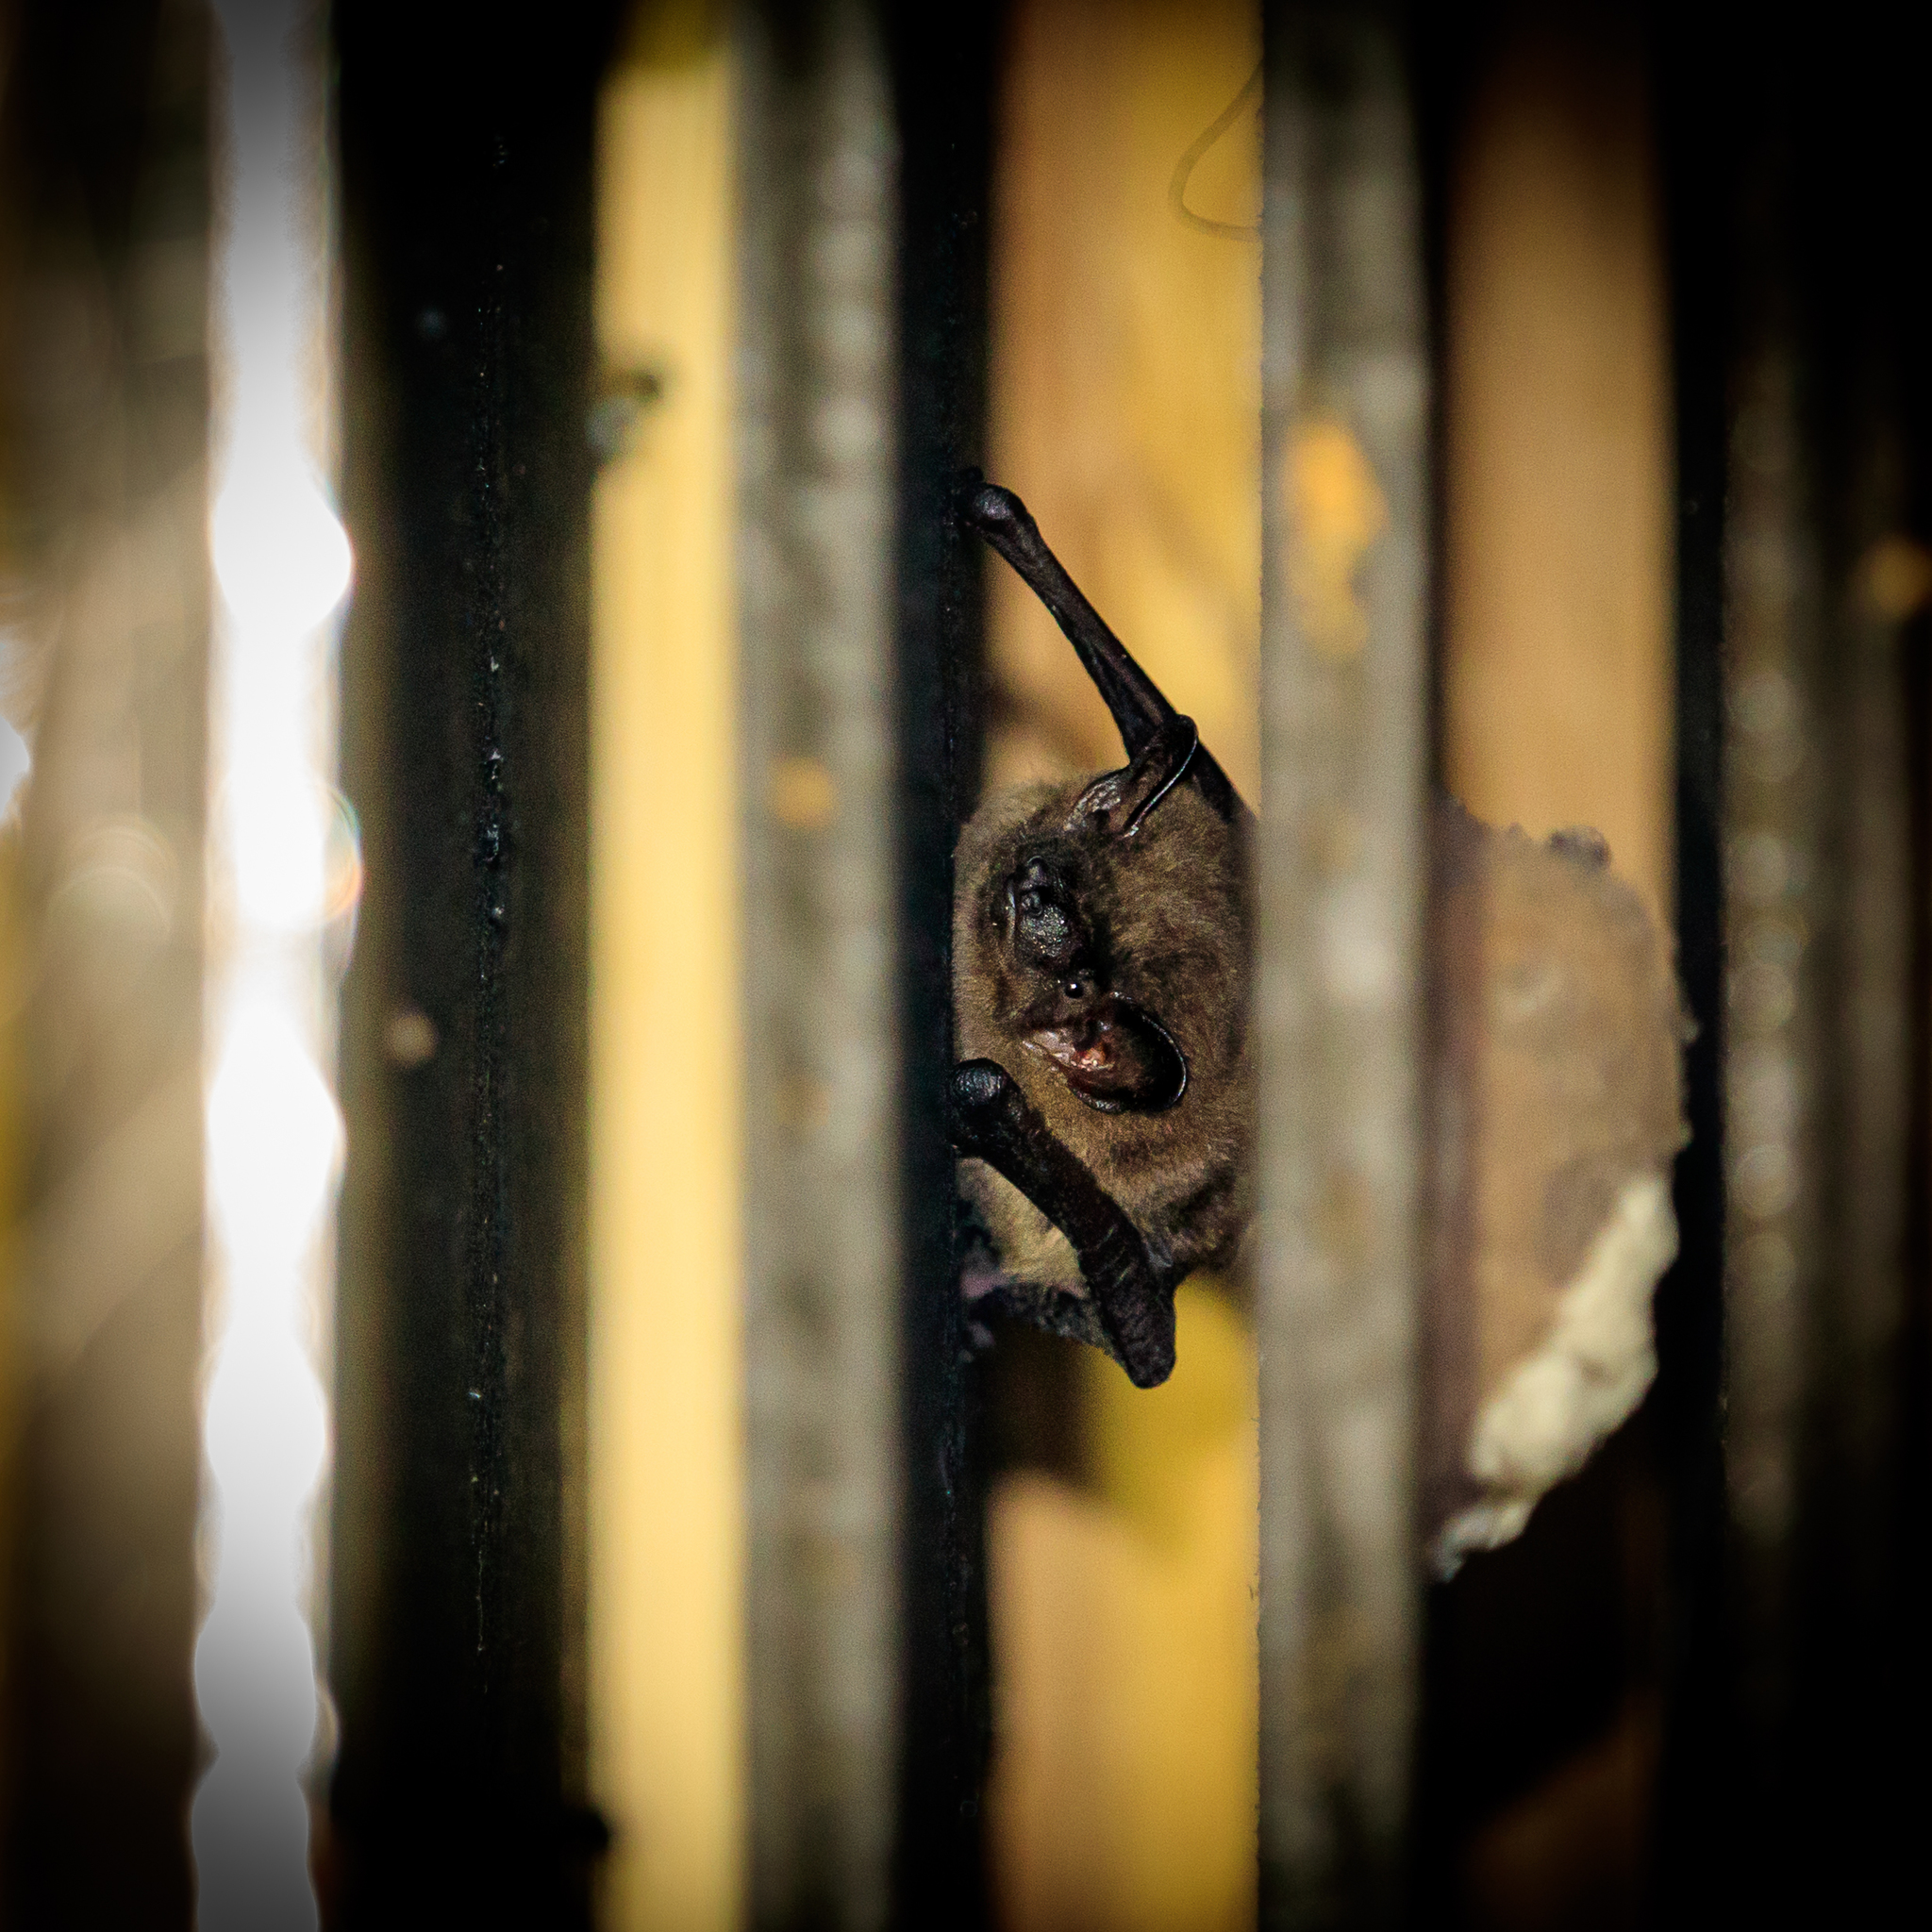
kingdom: Animalia
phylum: Chordata
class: Mammalia
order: Chiroptera
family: Vespertilionidae
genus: Eptesicus
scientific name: Eptesicus fuscus
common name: Big brown bat
